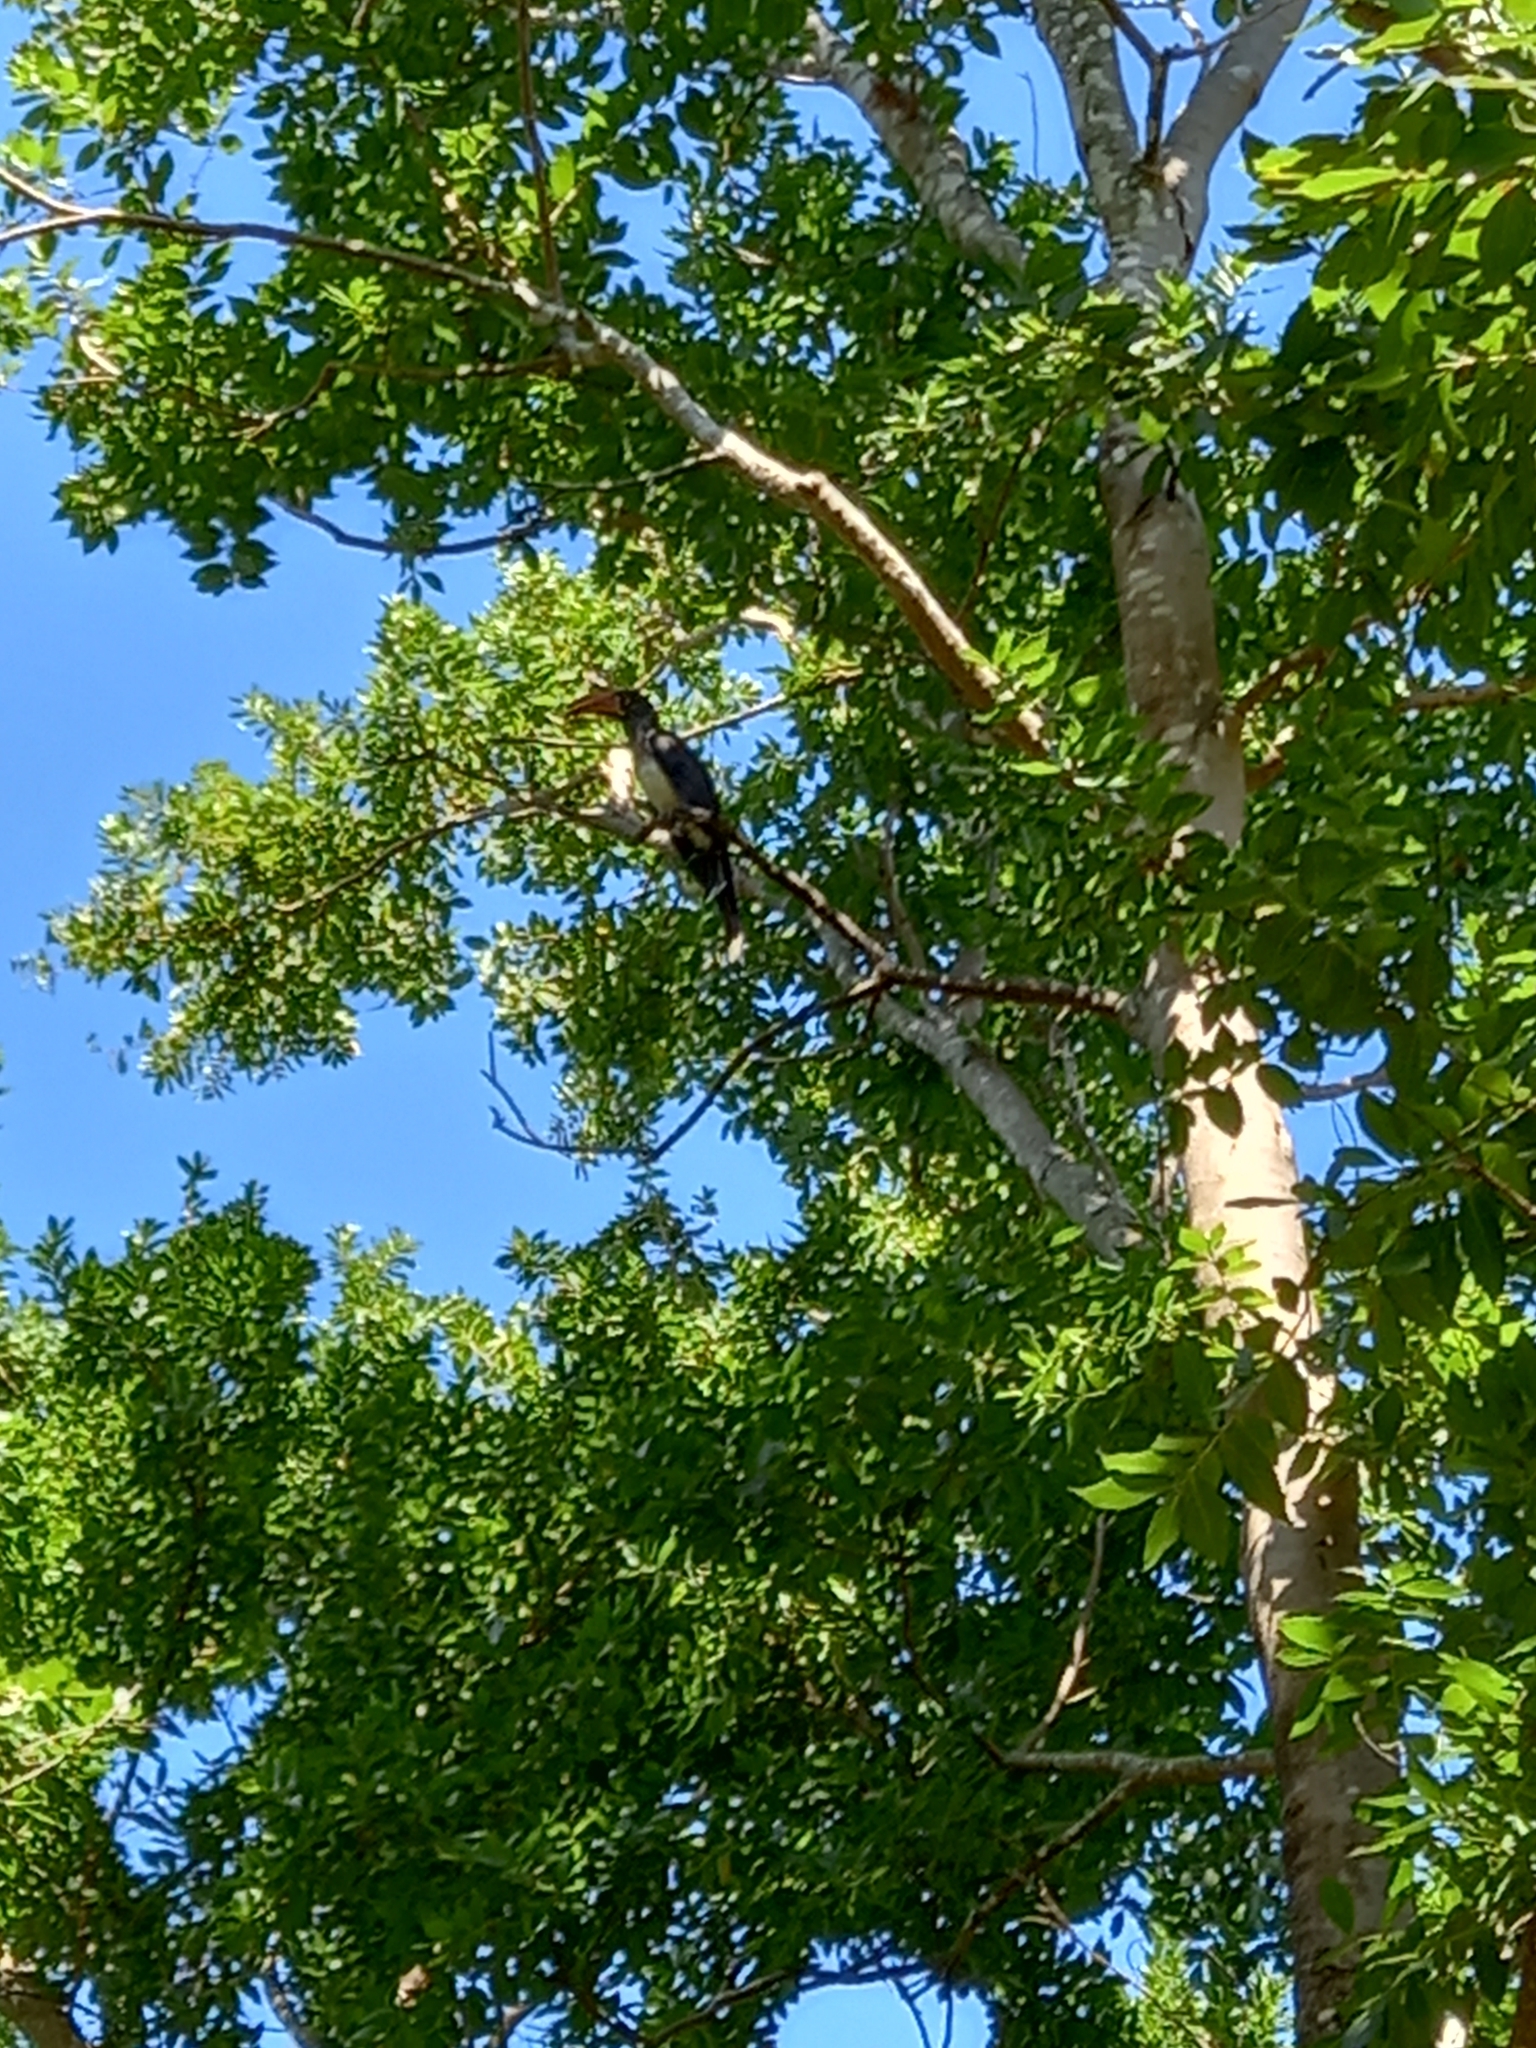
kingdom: Animalia
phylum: Chordata
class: Aves
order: Bucerotiformes
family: Bucerotidae
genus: Lophoceros
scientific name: Lophoceros alboterminatus
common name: Crowned hornbill
